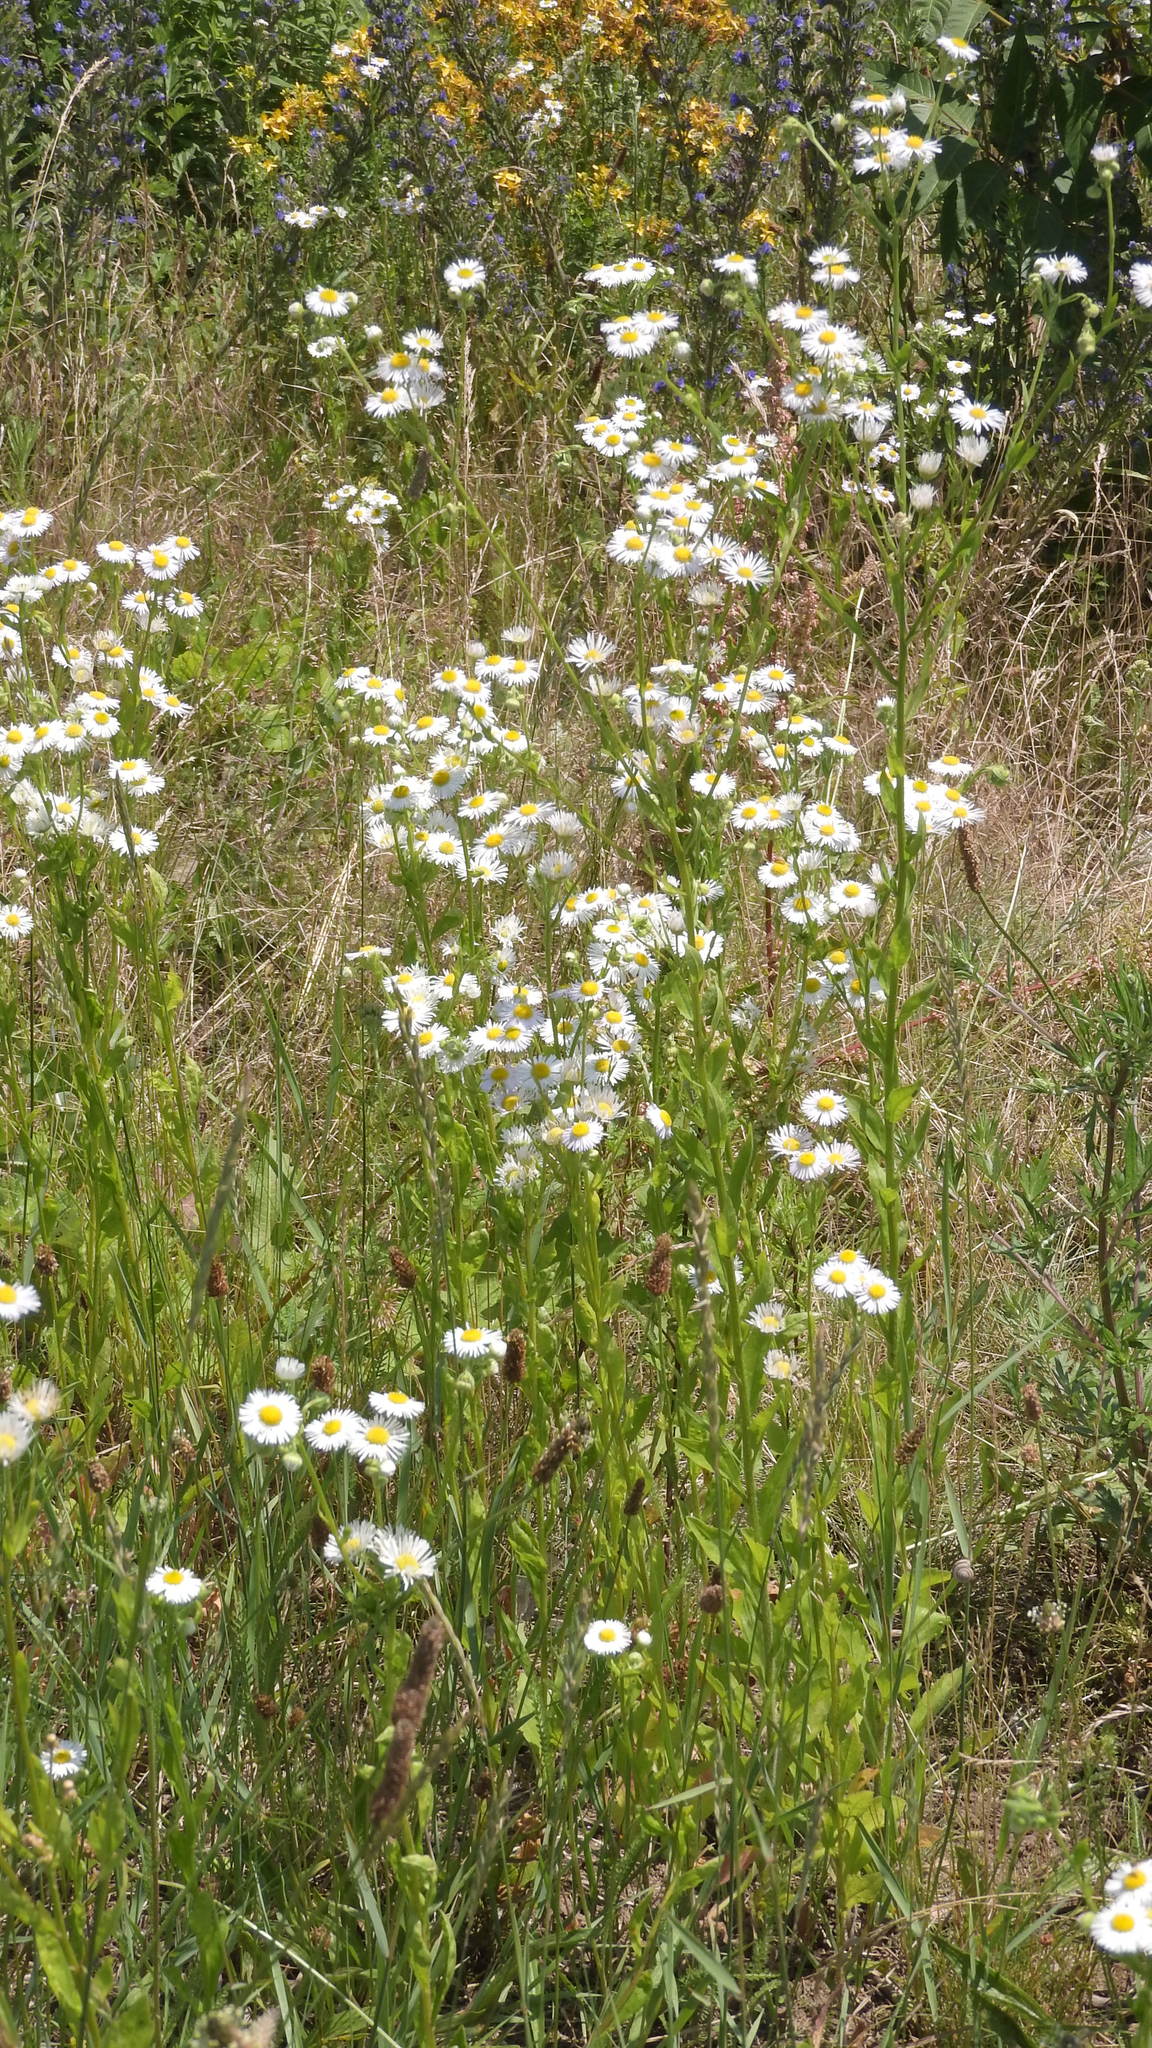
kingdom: Plantae
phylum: Tracheophyta
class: Magnoliopsida
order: Asterales
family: Asteraceae
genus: Erigeron
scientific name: Erigeron annuus
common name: Tall fleabane
